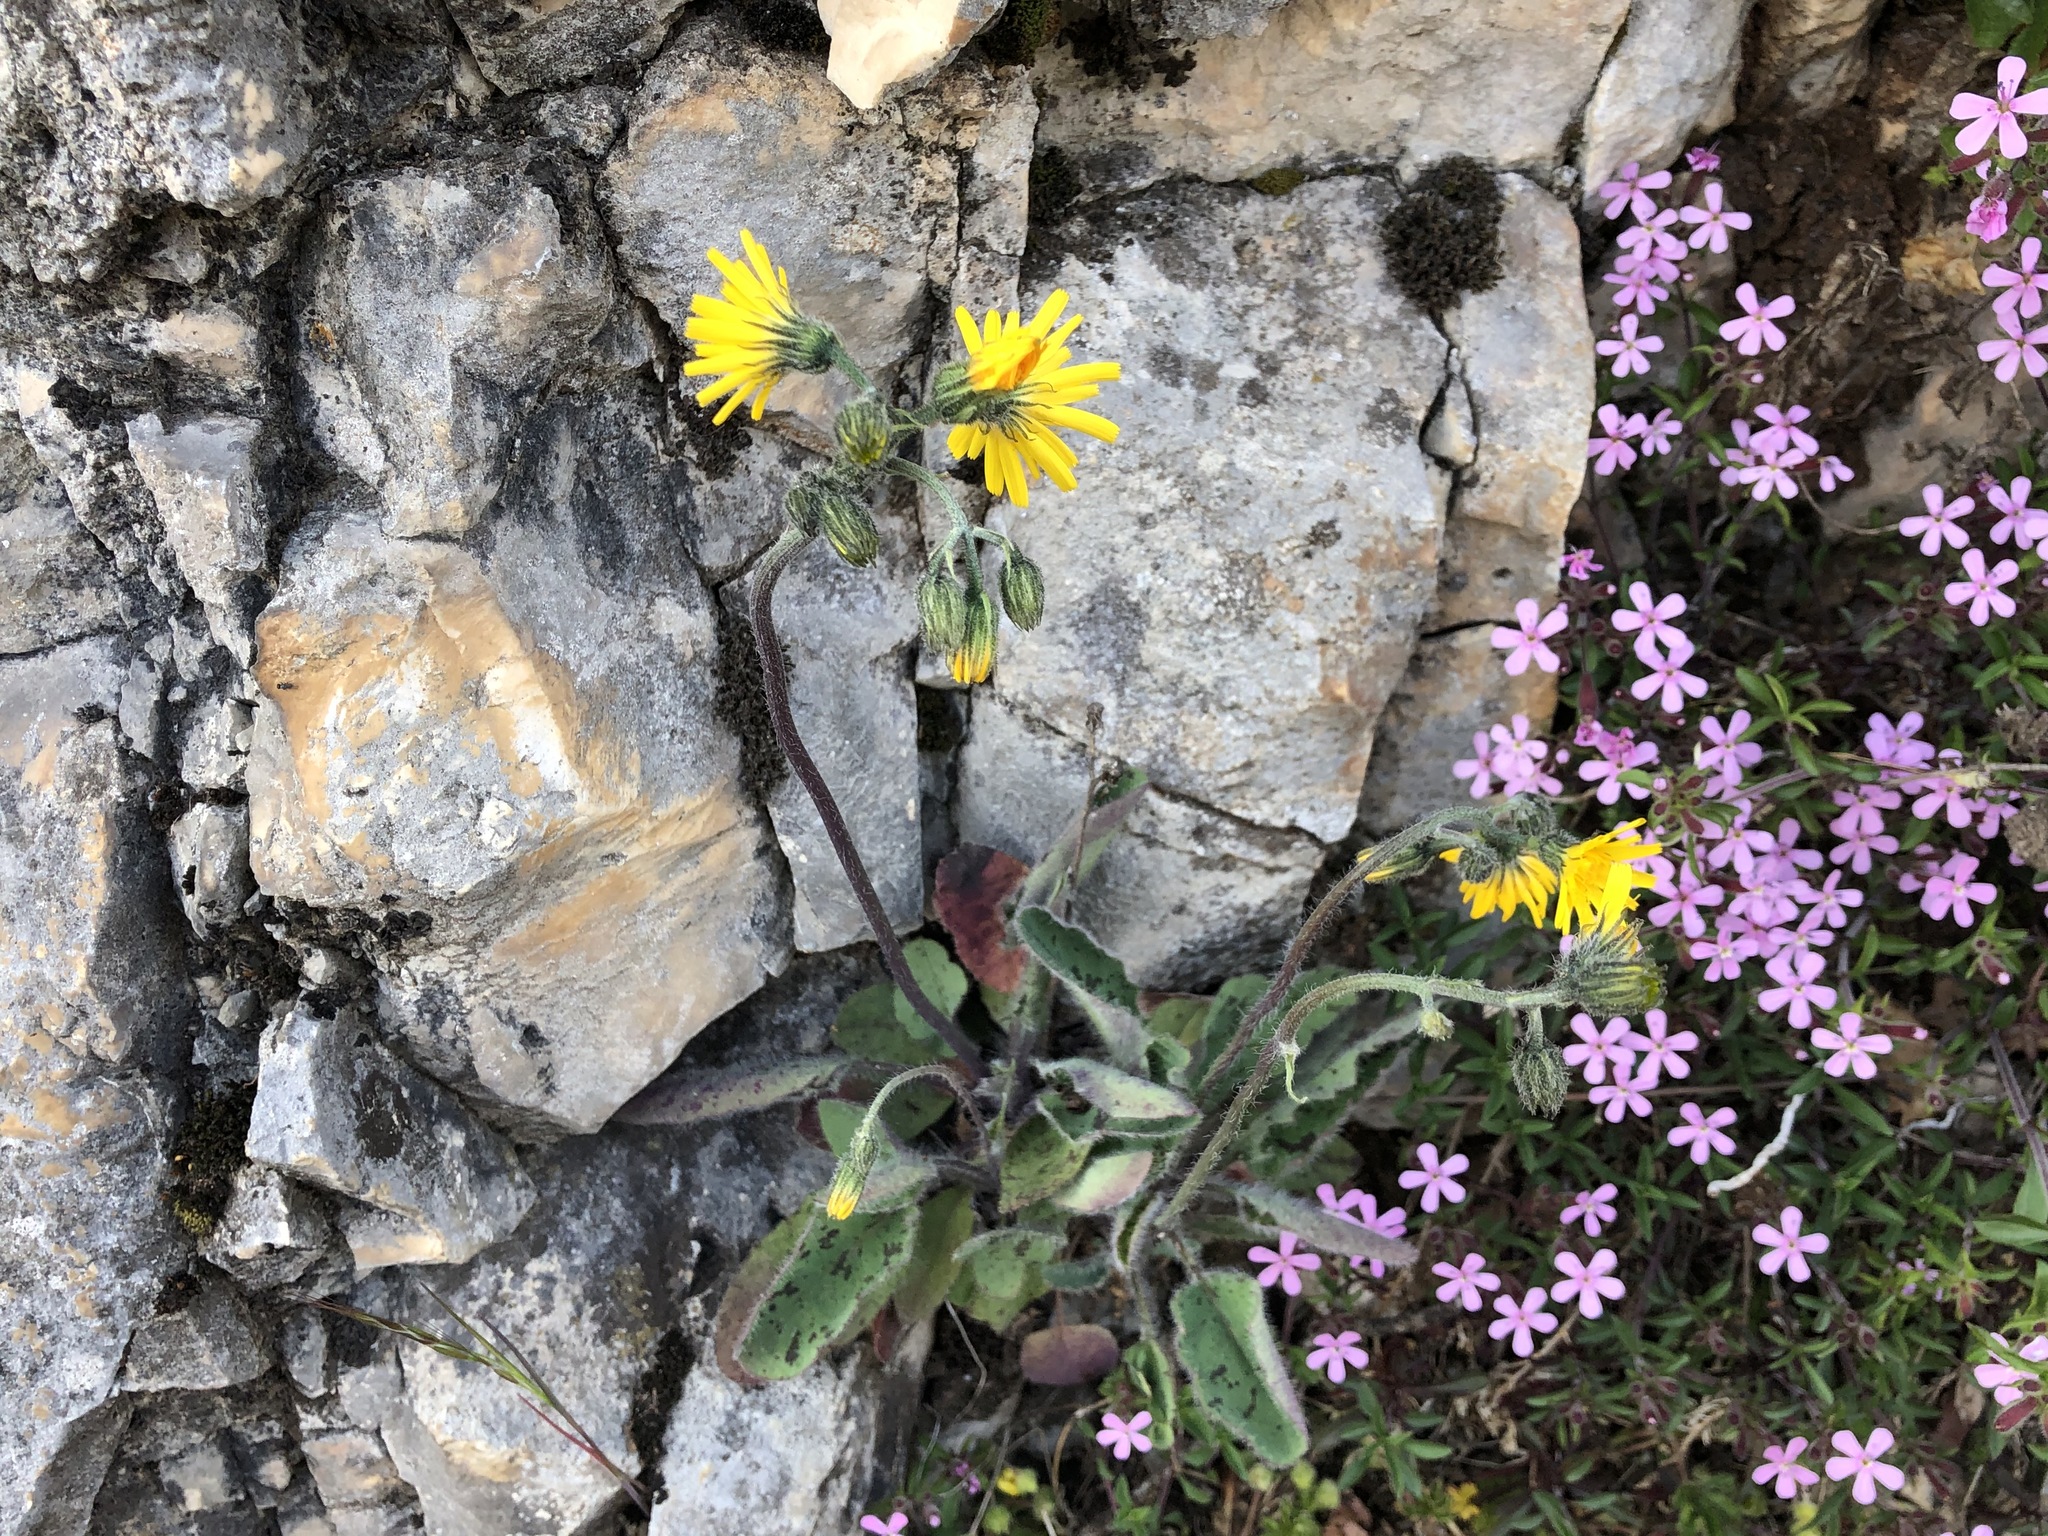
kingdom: Plantae
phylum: Tracheophyta
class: Magnoliopsida
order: Asterales
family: Asteraceae
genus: Hieracium
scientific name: Hieracium murorum
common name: Wall hawkweed
